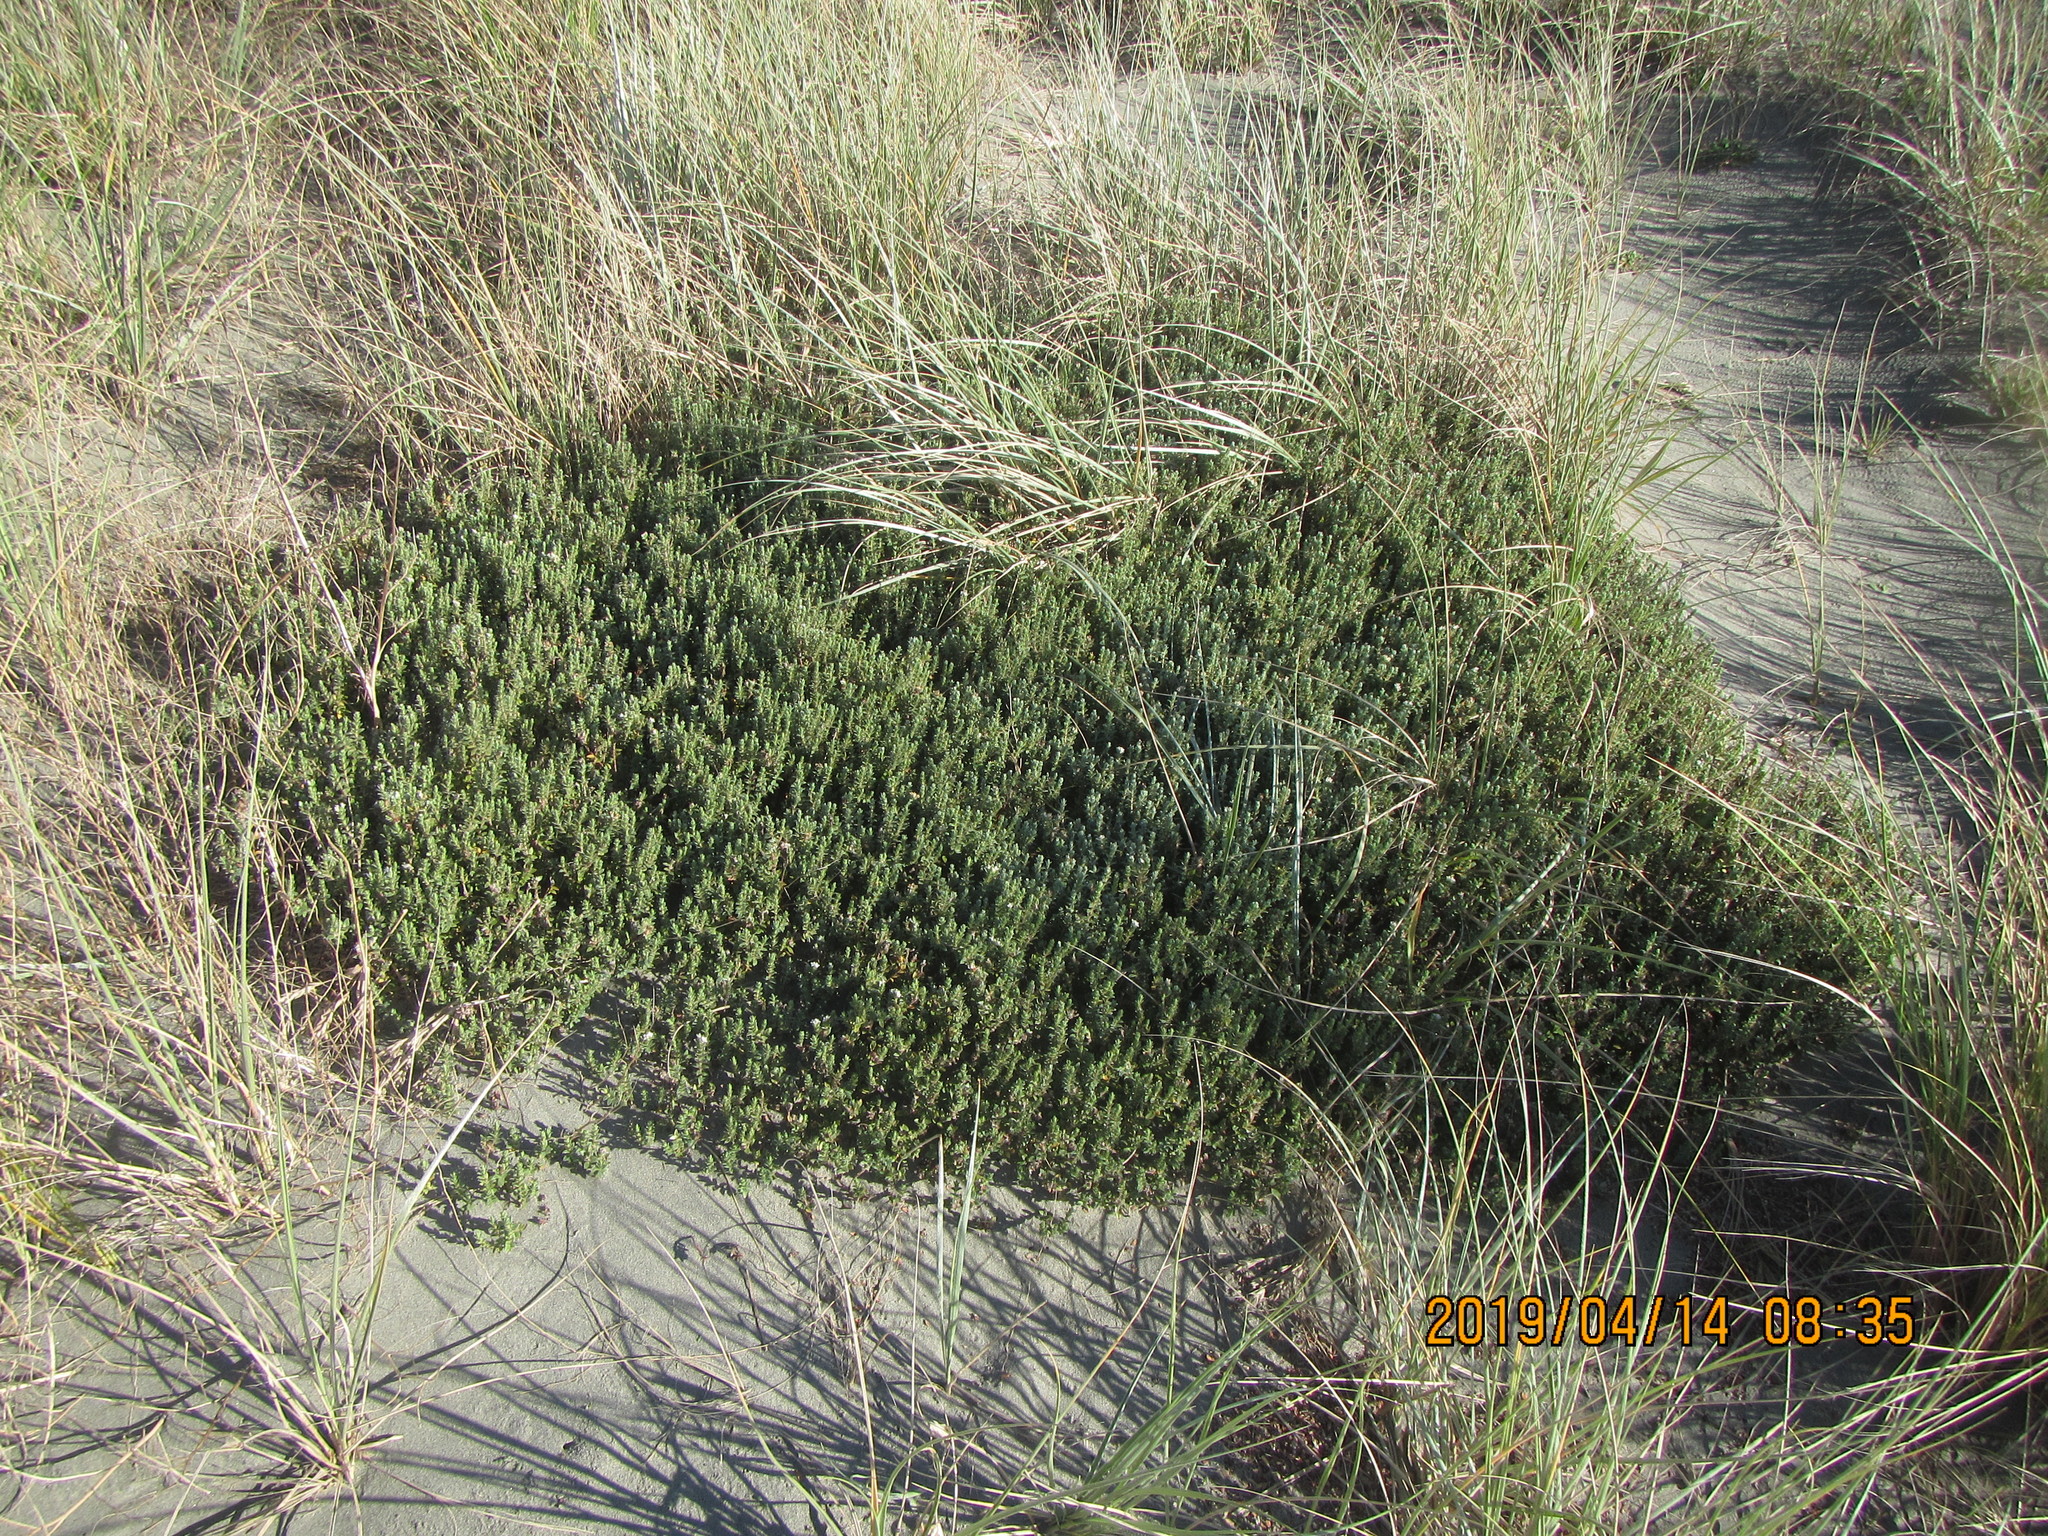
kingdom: Plantae
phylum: Tracheophyta
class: Magnoliopsida
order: Malvales
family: Thymelaeaceae
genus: Pimelea
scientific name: Pimelea villosa
